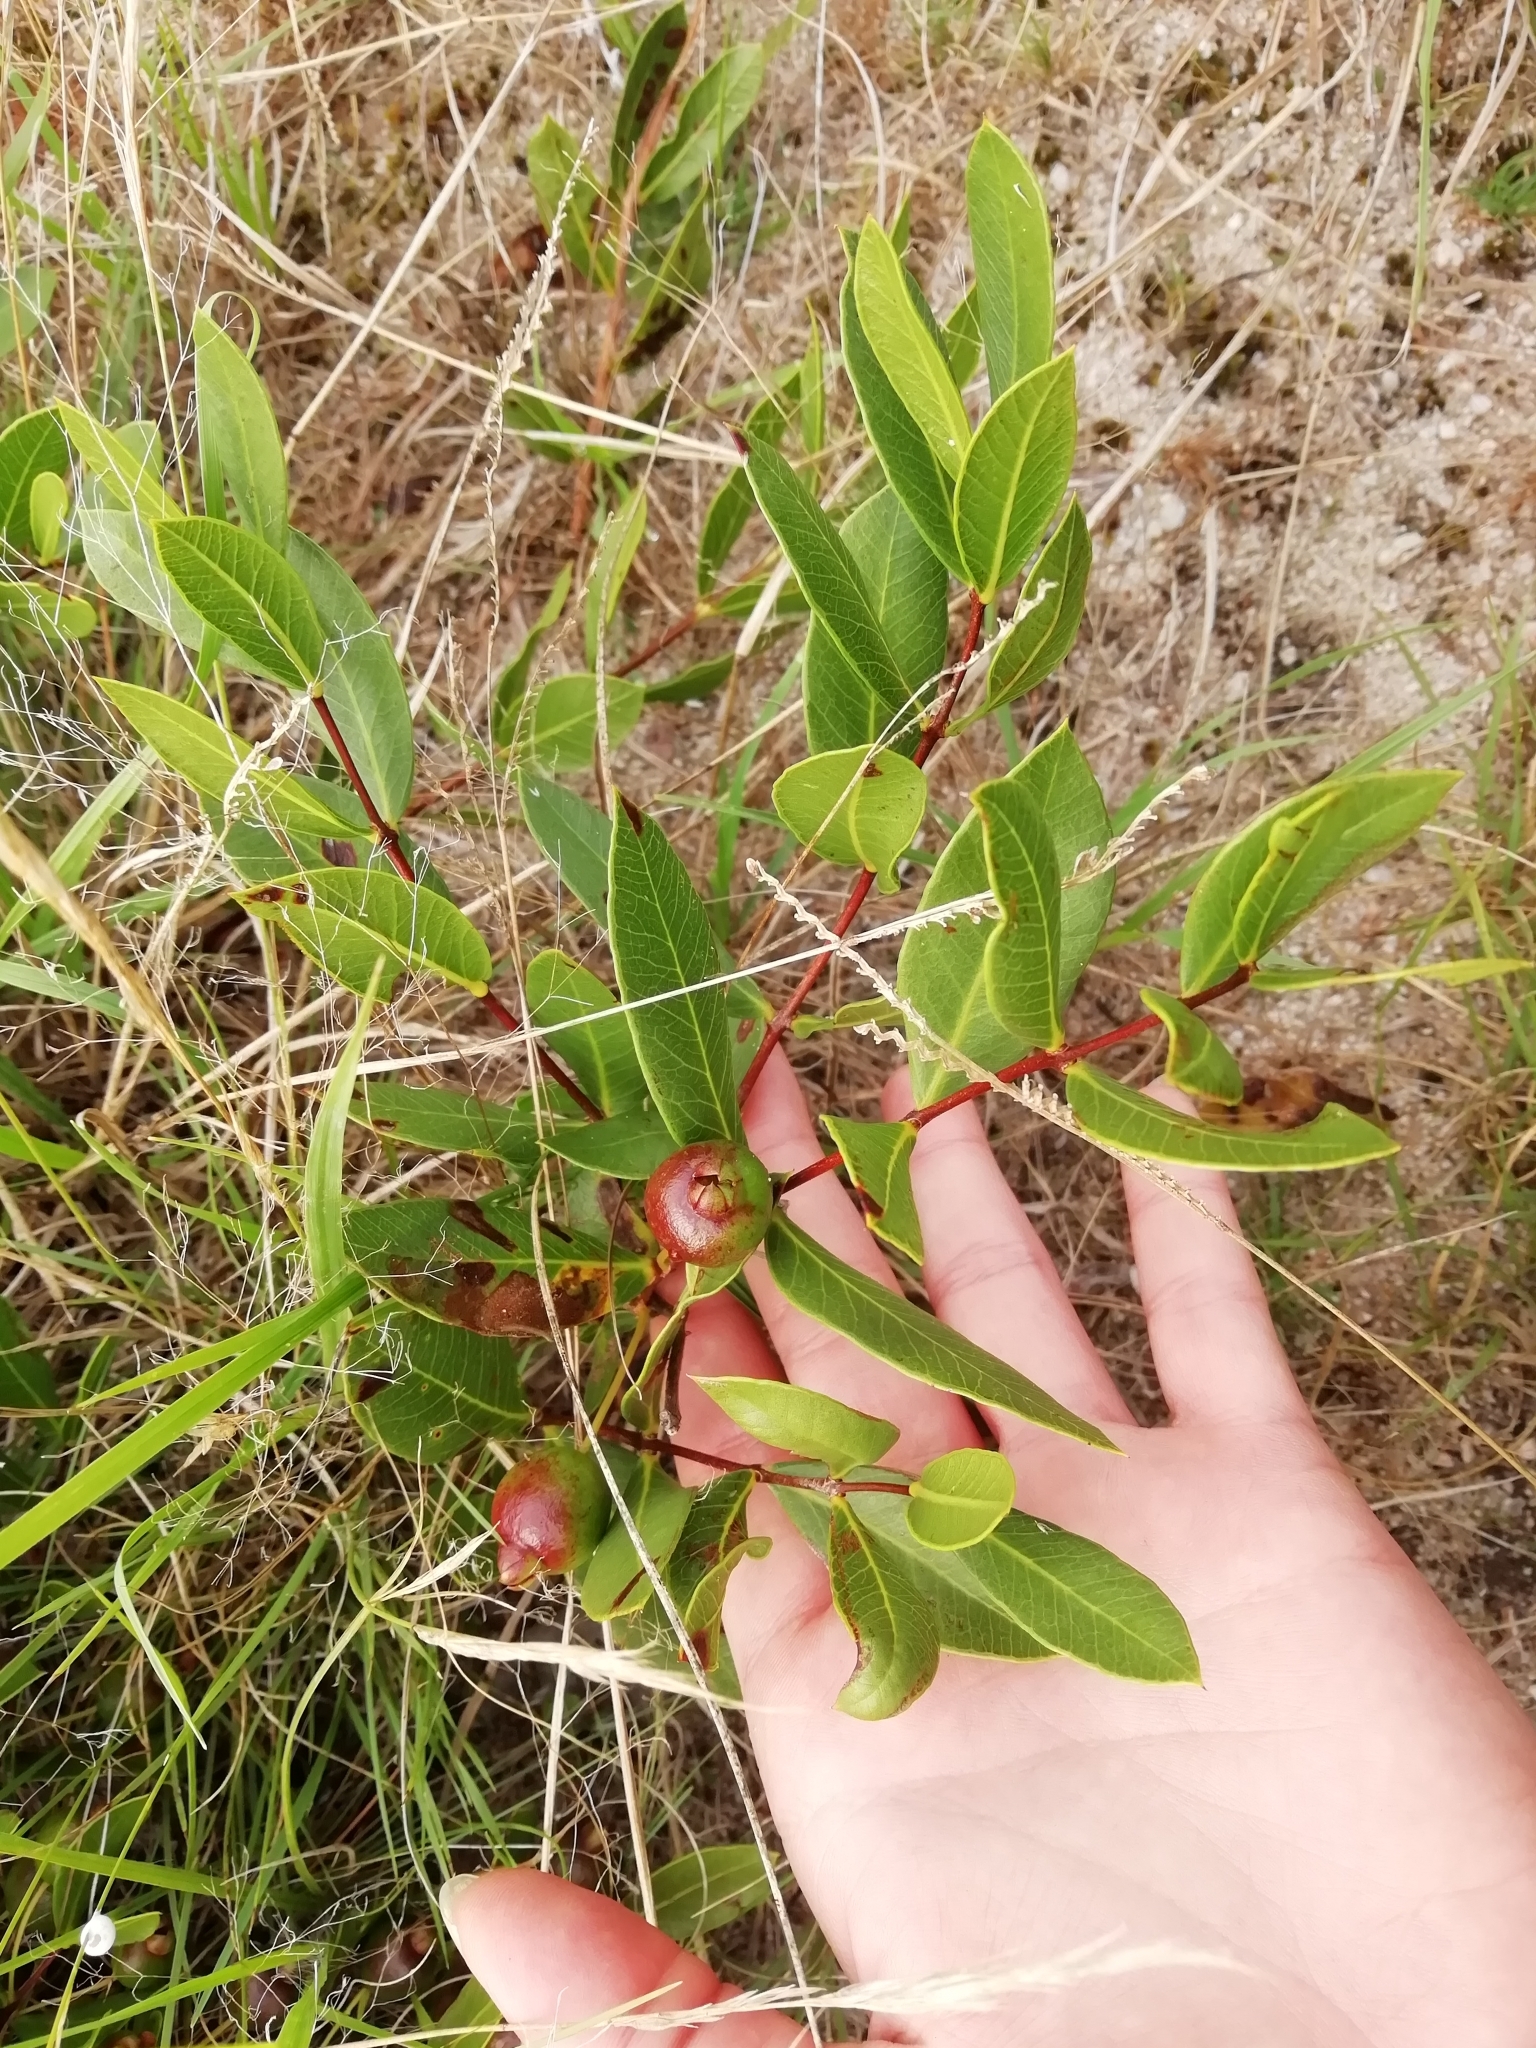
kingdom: Plantae
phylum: Tracheophyta
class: Magnoliopsida
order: Myrtales
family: Myrtaceae
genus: Psidium
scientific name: Psidium salutare
